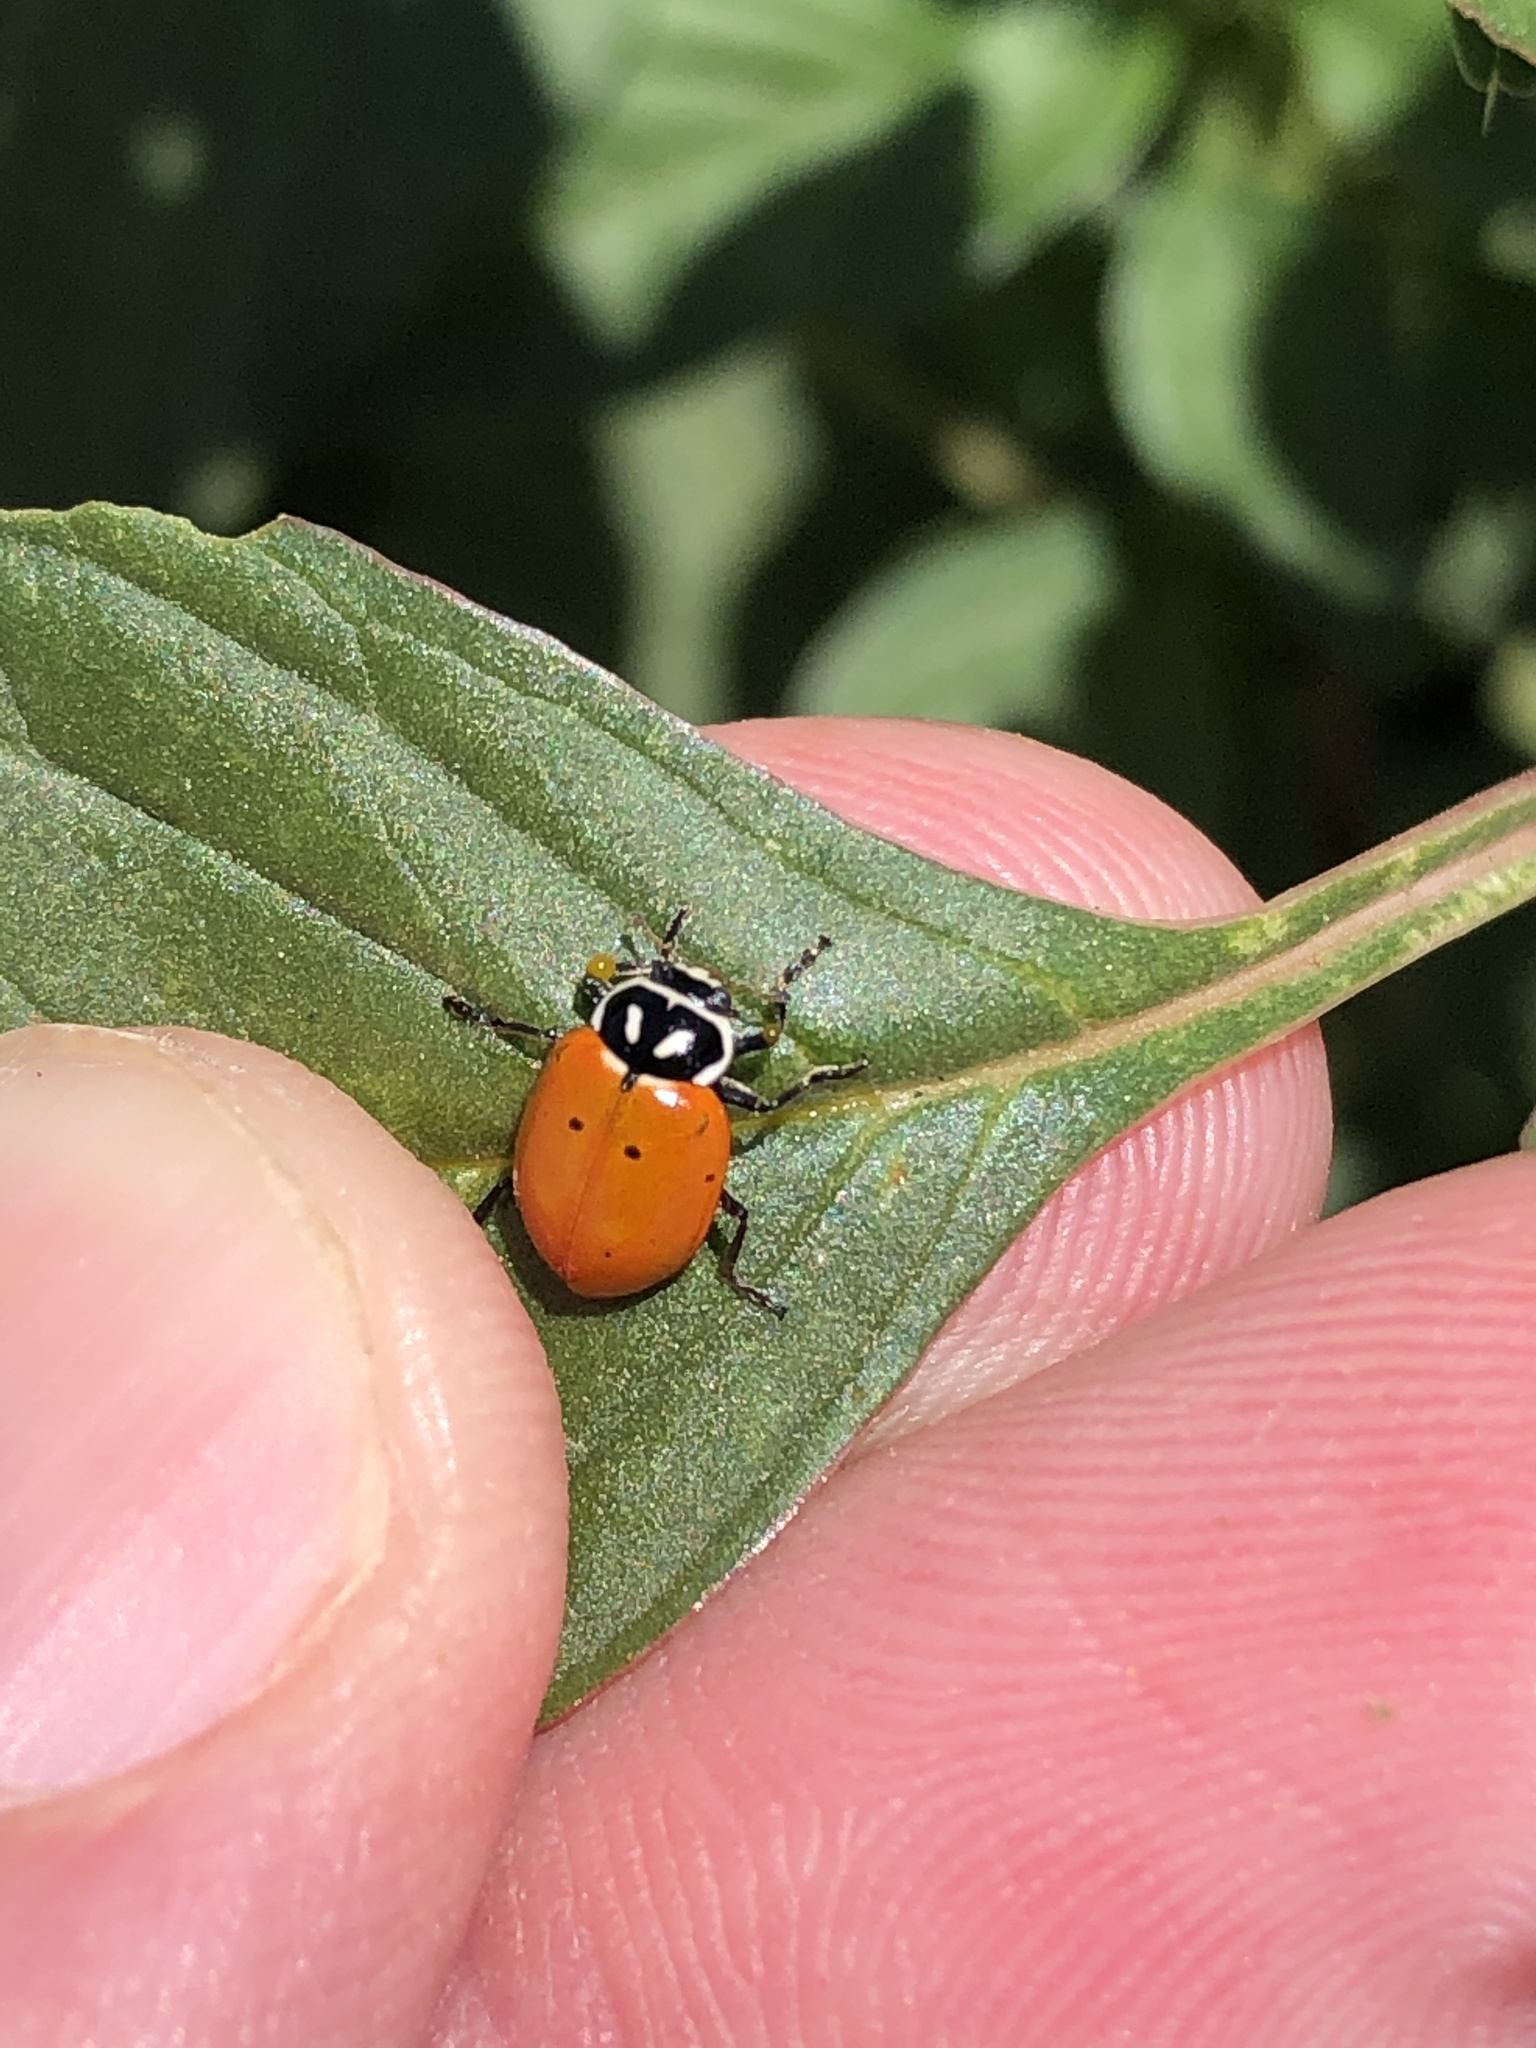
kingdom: Animalia
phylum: Arthropoda
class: Insecta
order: Coleoptera
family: Coccinellidae
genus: Hippodamia
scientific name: Hippodamia convergens
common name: Convergent lady beetle
